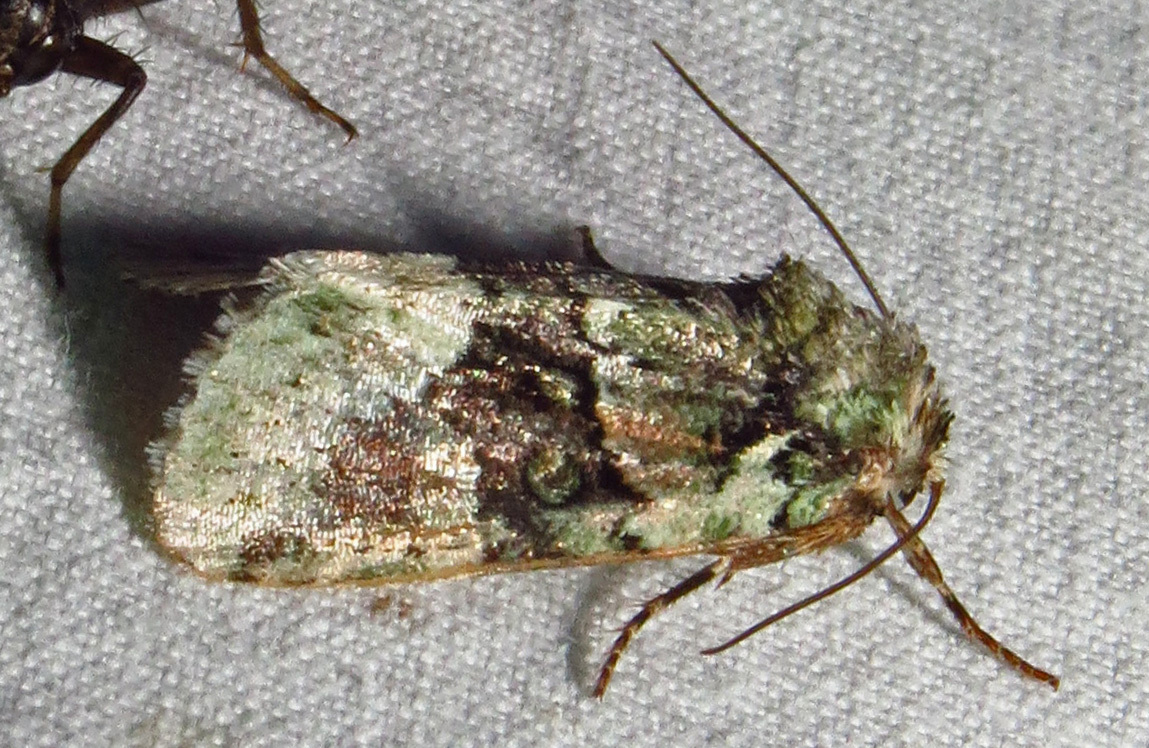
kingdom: Animalia
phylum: Arthropoda
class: Insecta
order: Lepidoptera
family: Noctuidae
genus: Lacinipolia
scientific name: Lacinipolia explicata
